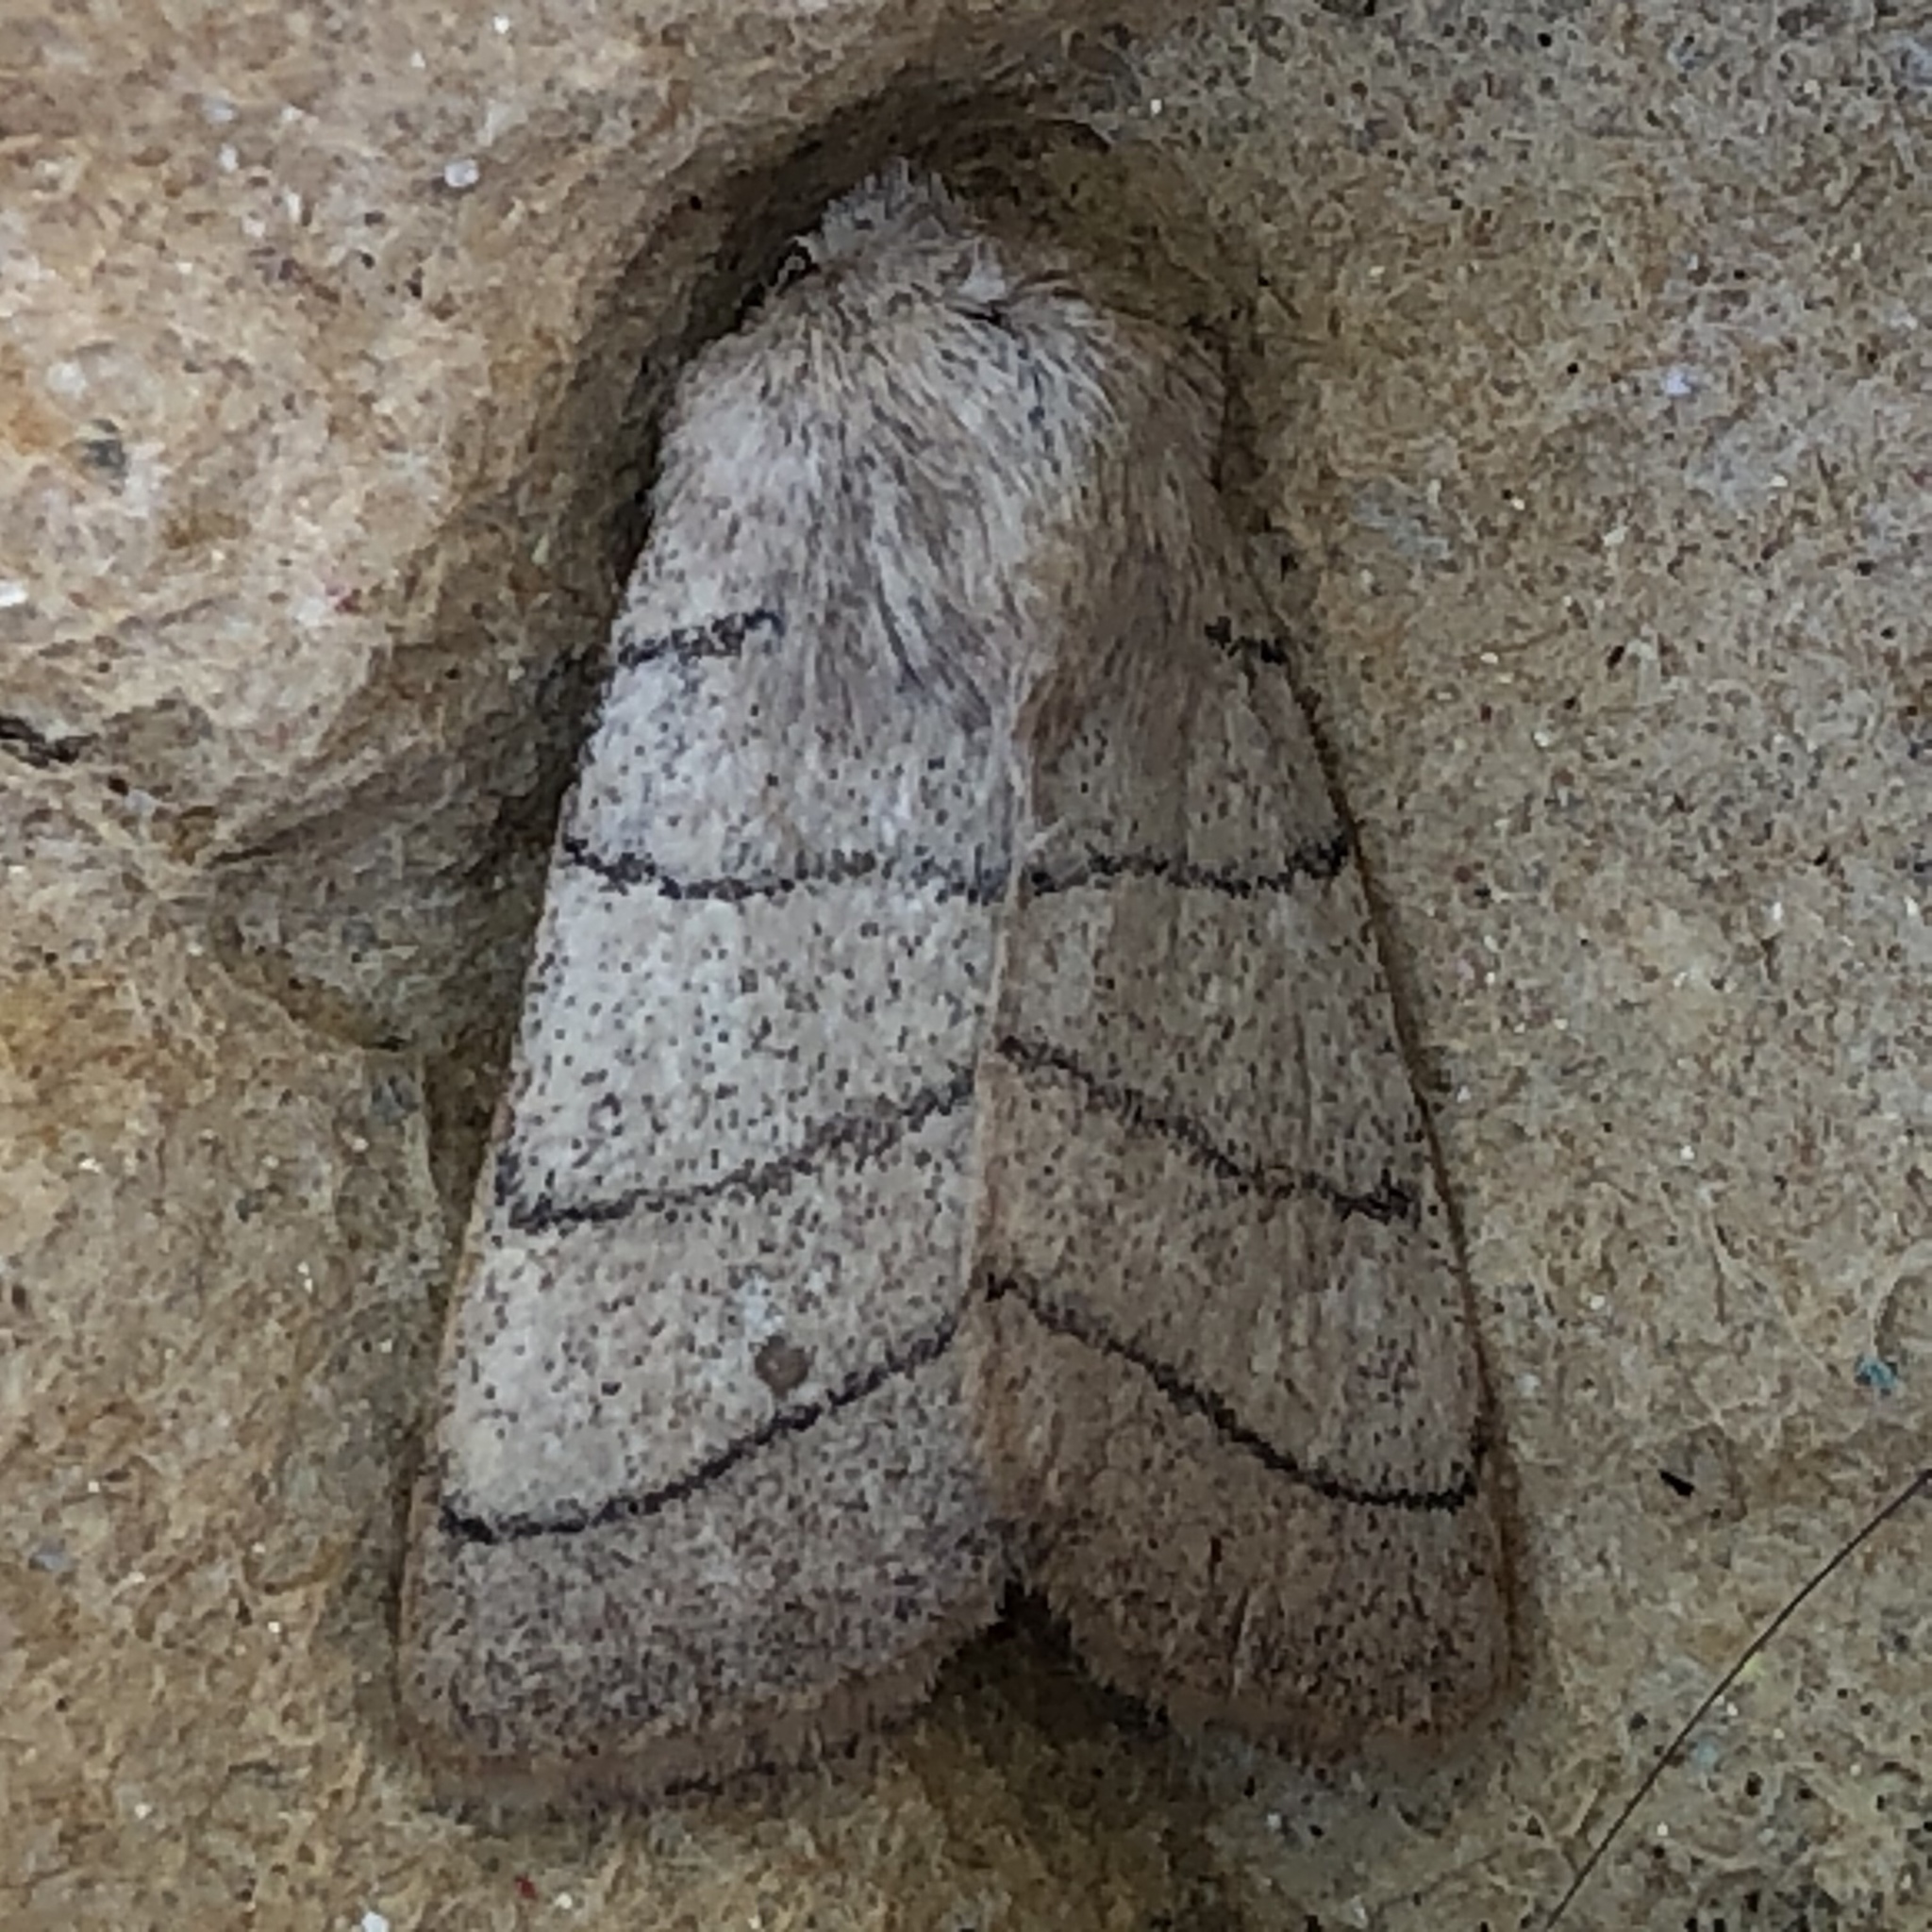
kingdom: Animalia
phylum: Arthropoda
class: Insecta
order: Lepidoptera
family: Noctuidae
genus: Charanyca
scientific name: Charanyca trigrammica
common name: Treble lines
